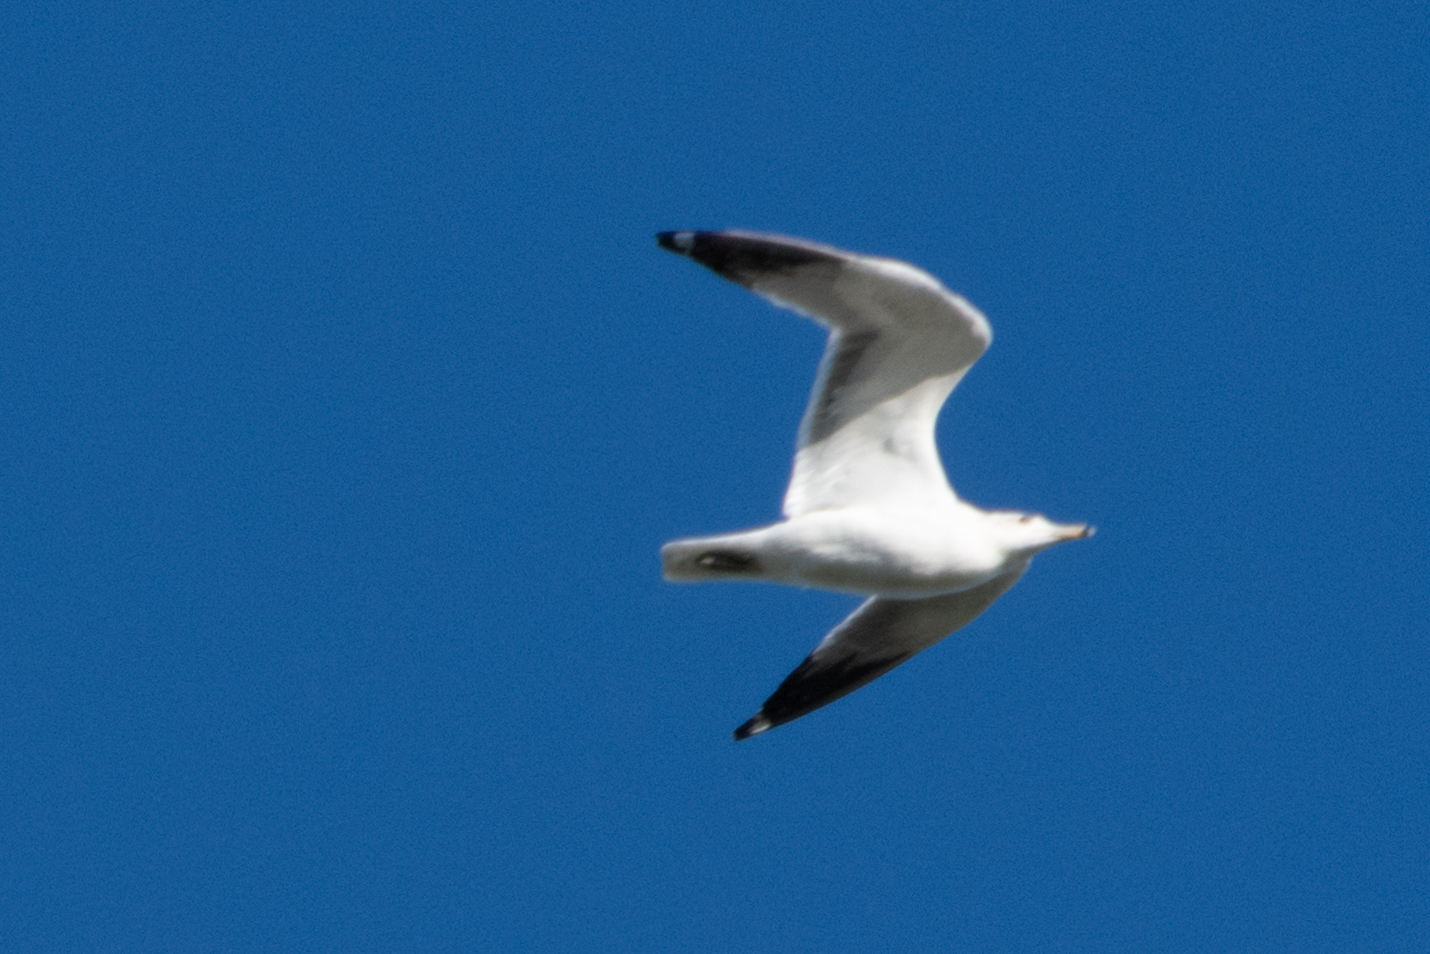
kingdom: Animalia
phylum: Chordata
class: Aves
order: Charadriiformes
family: Laridae
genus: Larus
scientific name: Larus californicus
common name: California gull
